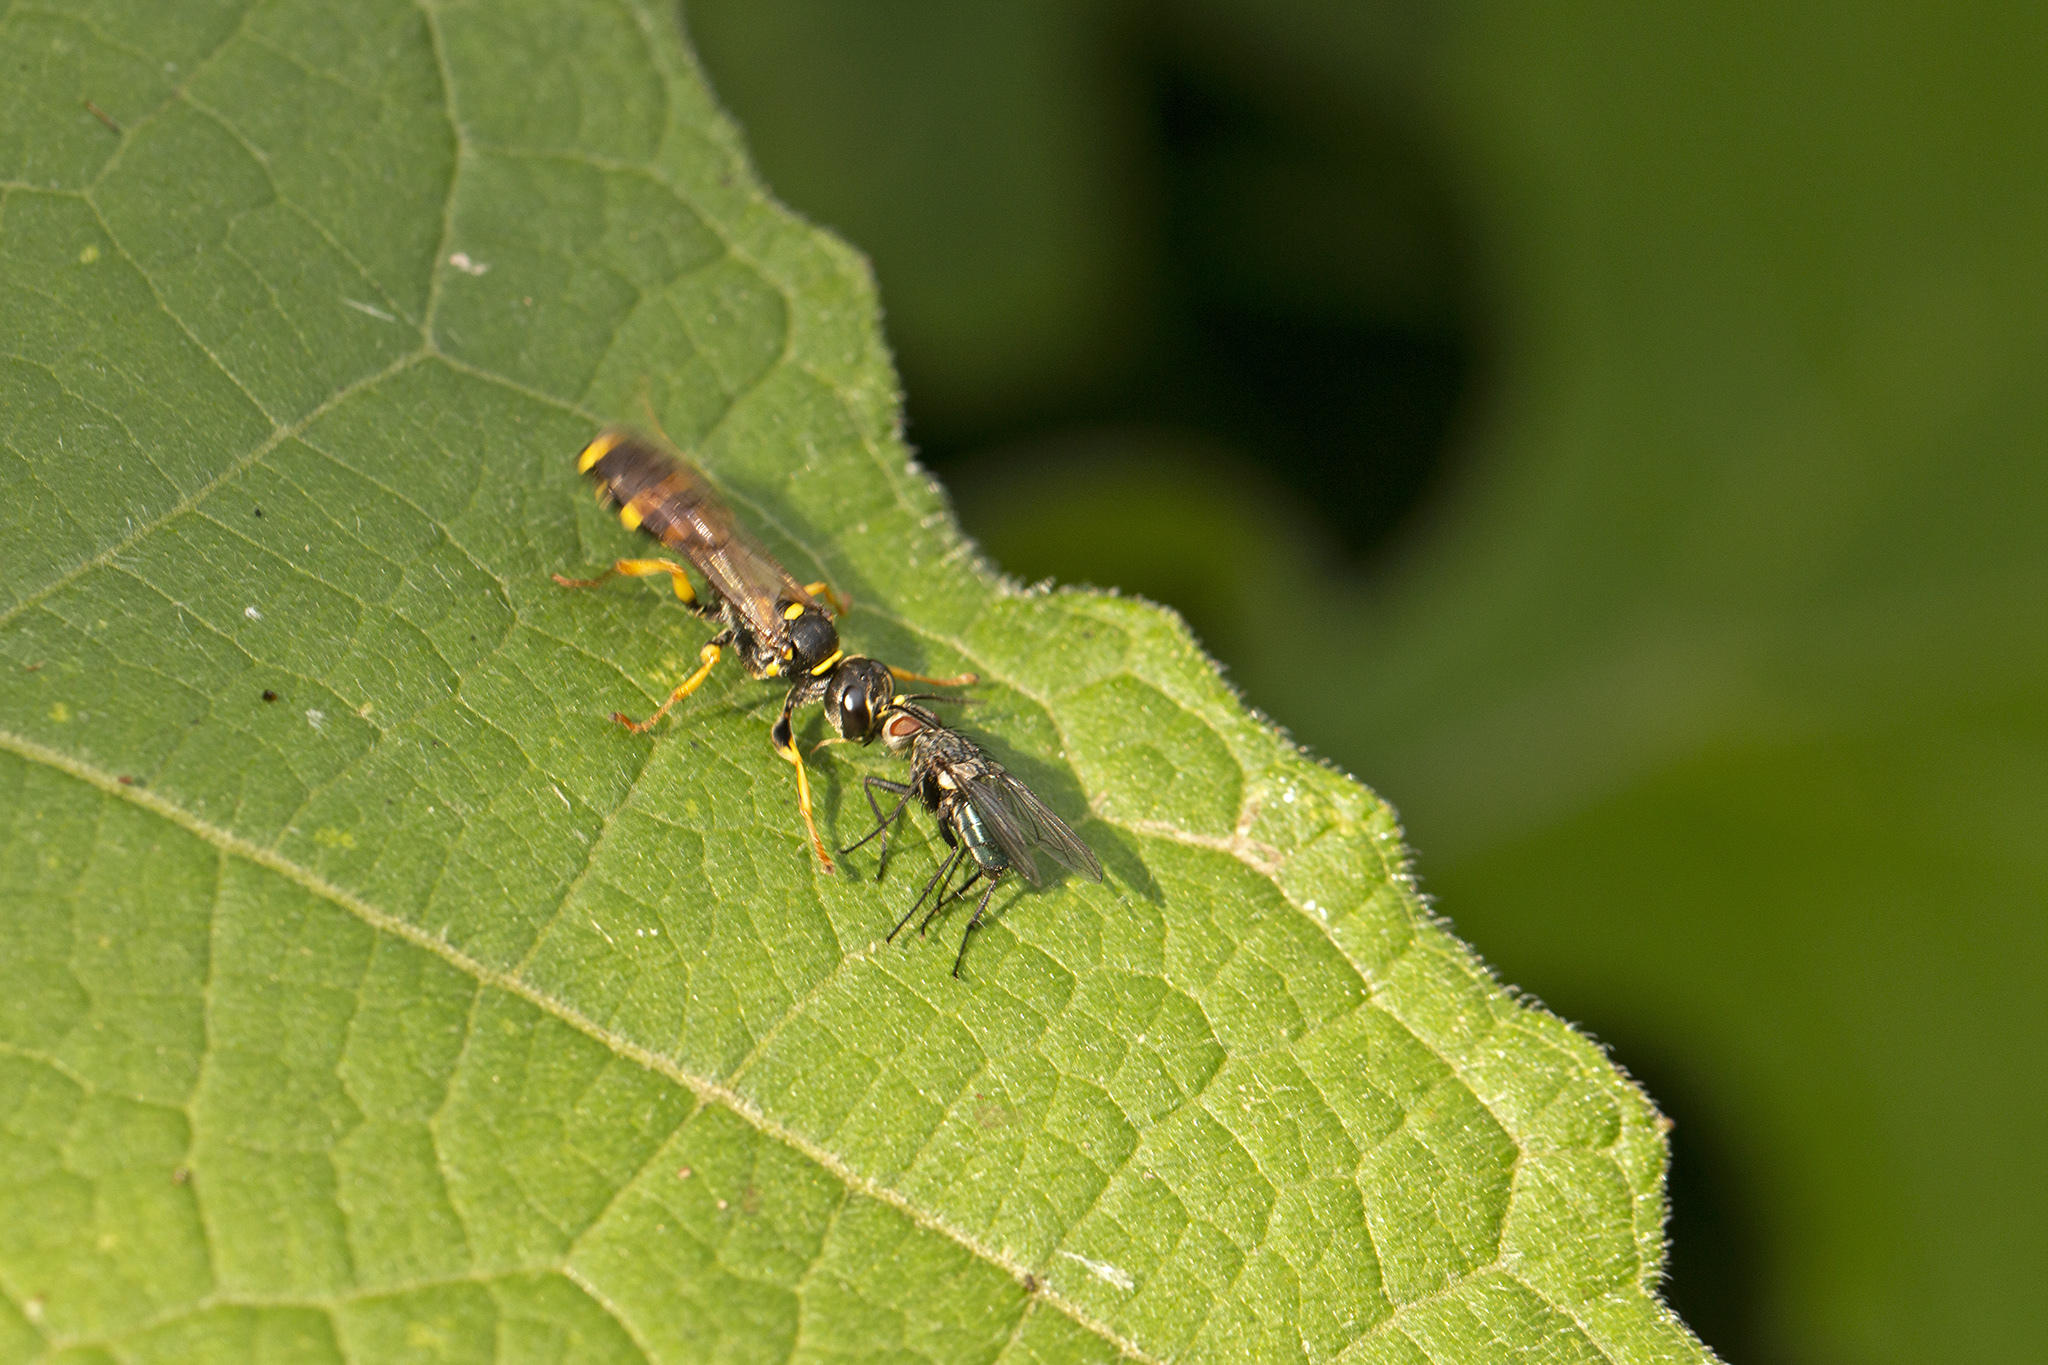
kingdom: Animalia
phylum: Arthropoda
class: Insecta
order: Hymenoptera
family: Crabronidae
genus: Mellinus
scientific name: Mellinus arvensis
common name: Field digger wasp
